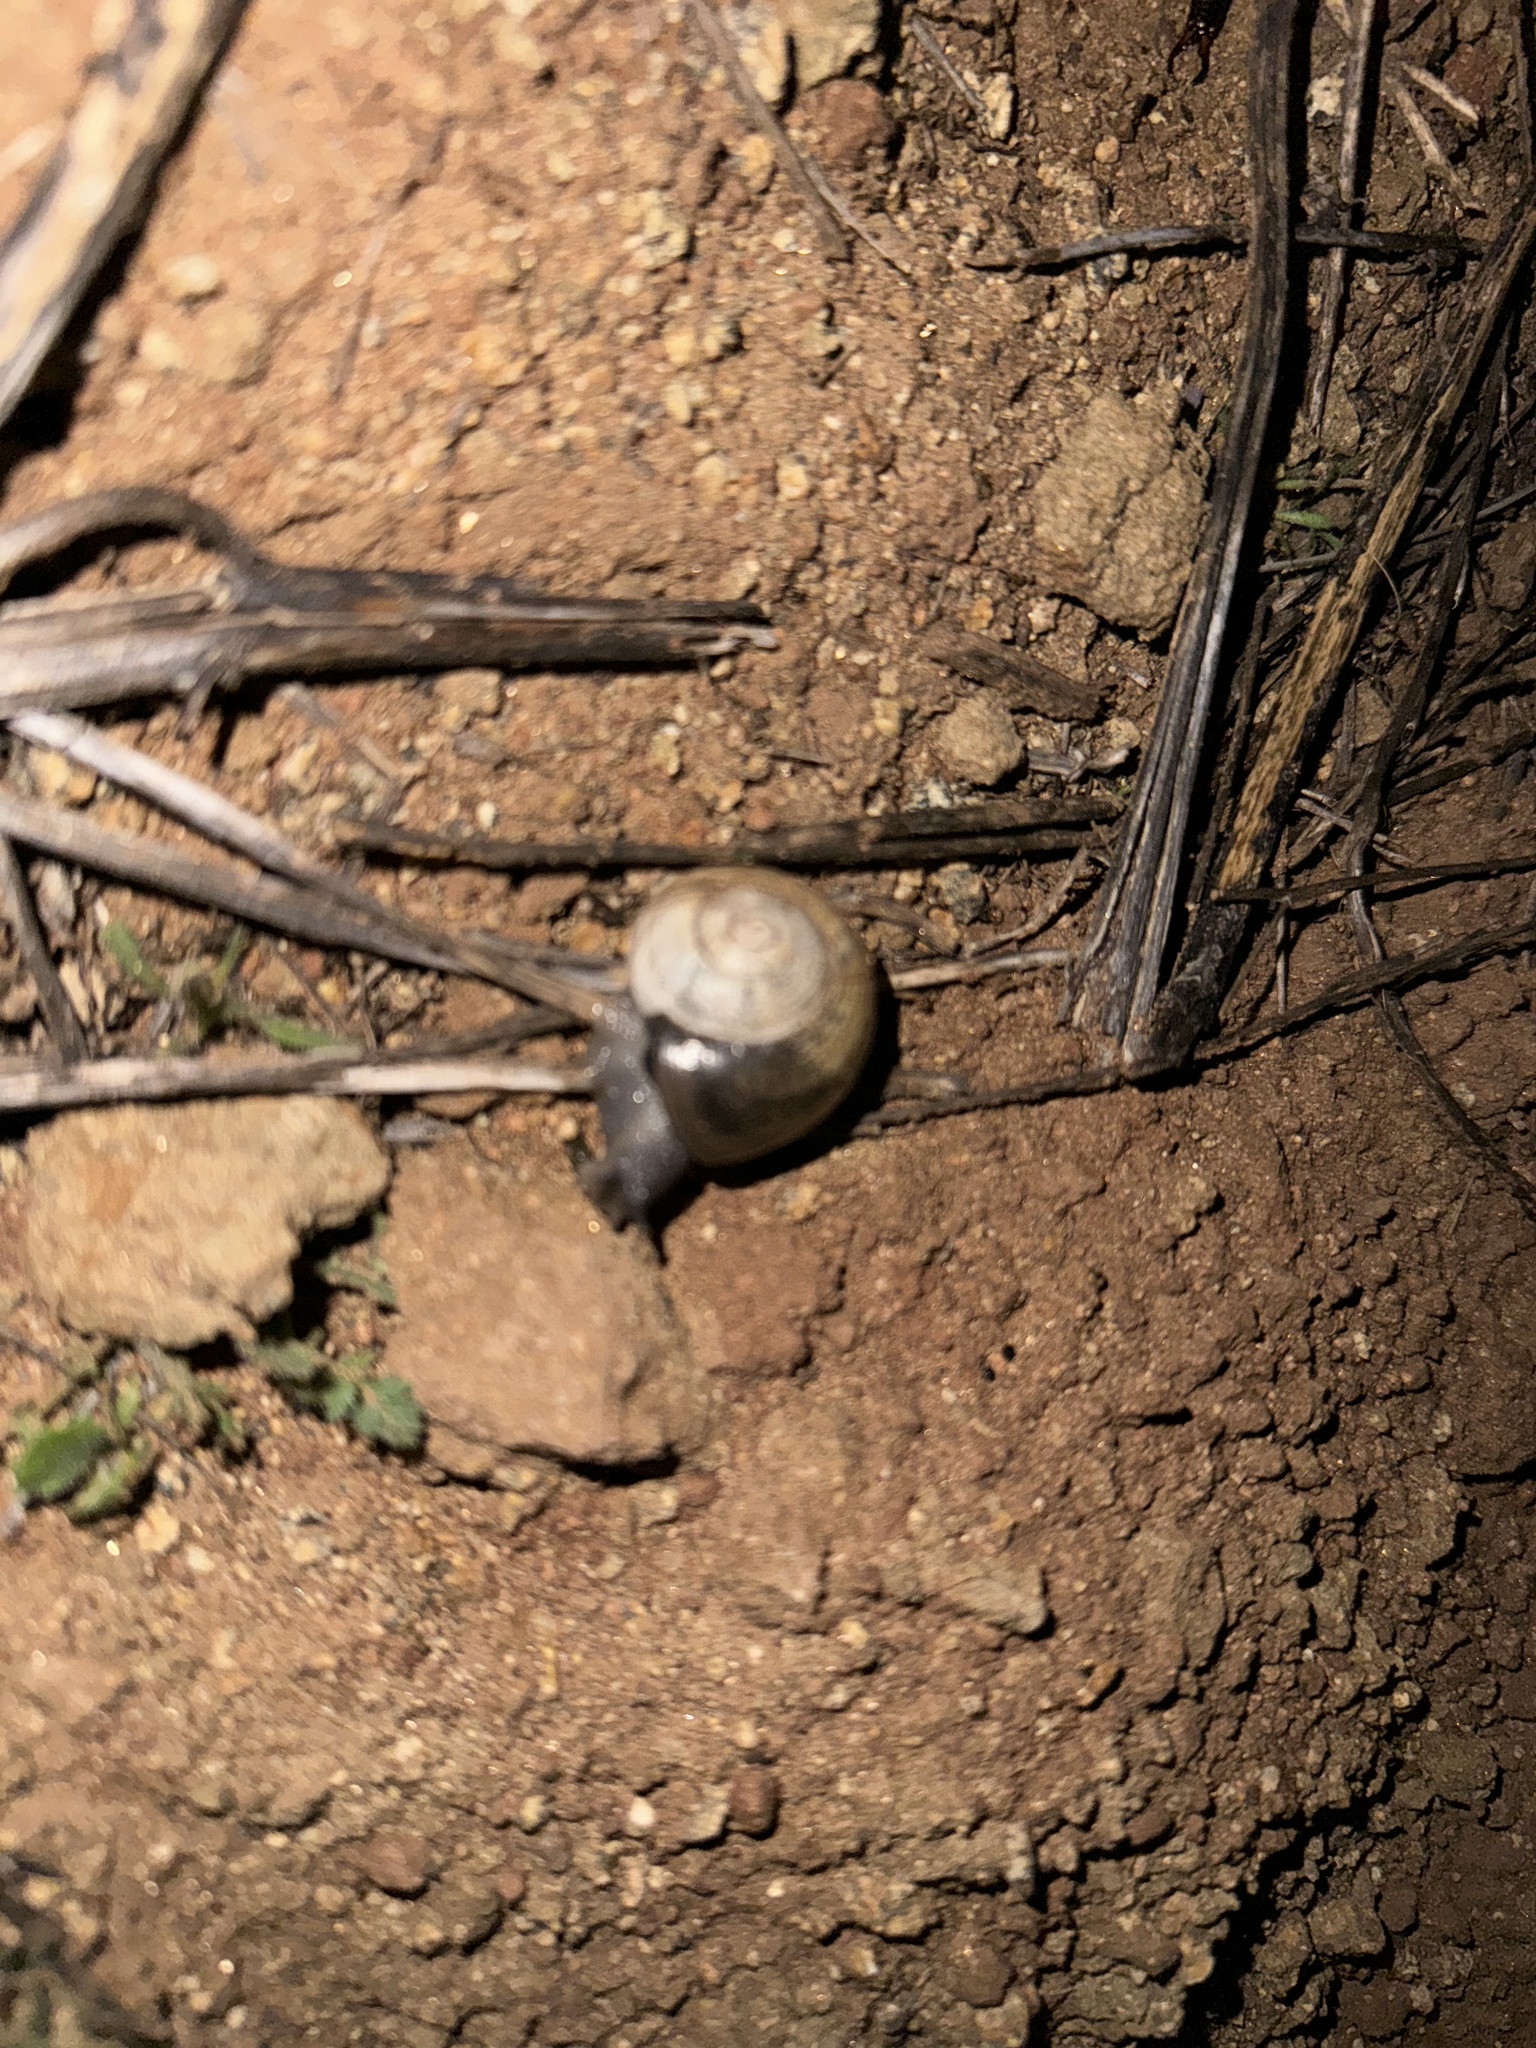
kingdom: Animalia
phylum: Mollusca
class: Gastropoda
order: Stylommatophora
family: Helicidae
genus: Otala
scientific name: Otala lactea
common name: Milk snail
